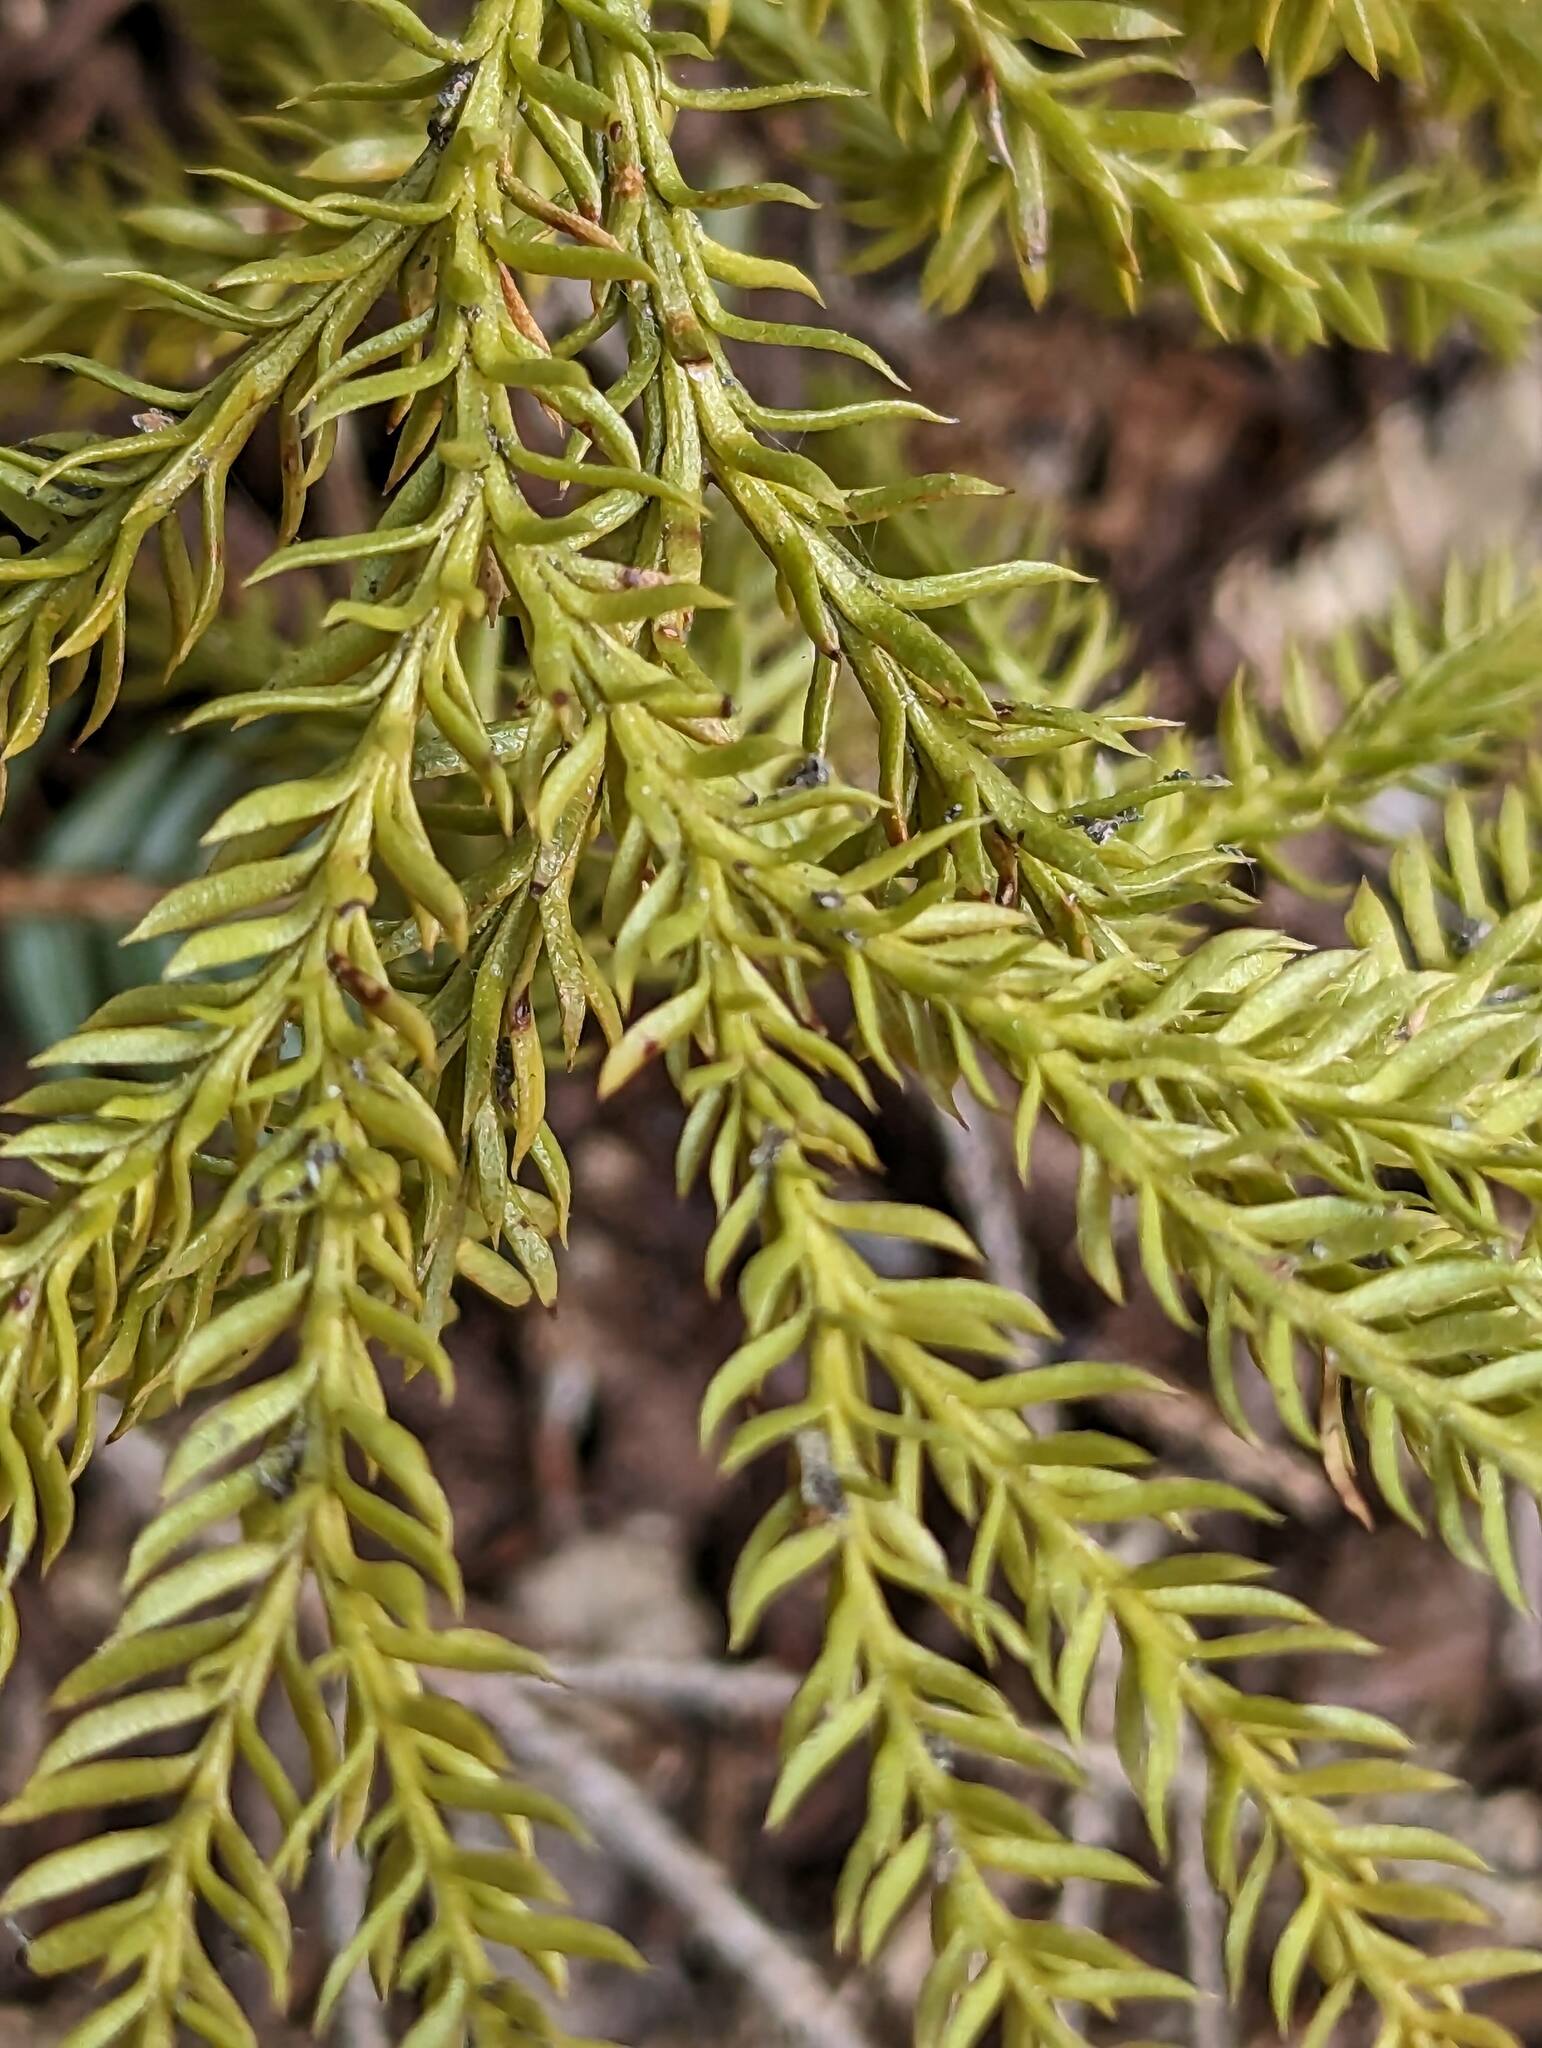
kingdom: Plantae
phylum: Tracheophyta
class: Lycopodiopsida
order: Lycopodiales
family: Lycopodiaceae
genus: Dendrolycopodium
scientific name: Dendrolycopodium dendroideum
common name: Northern tree-clubmoss
